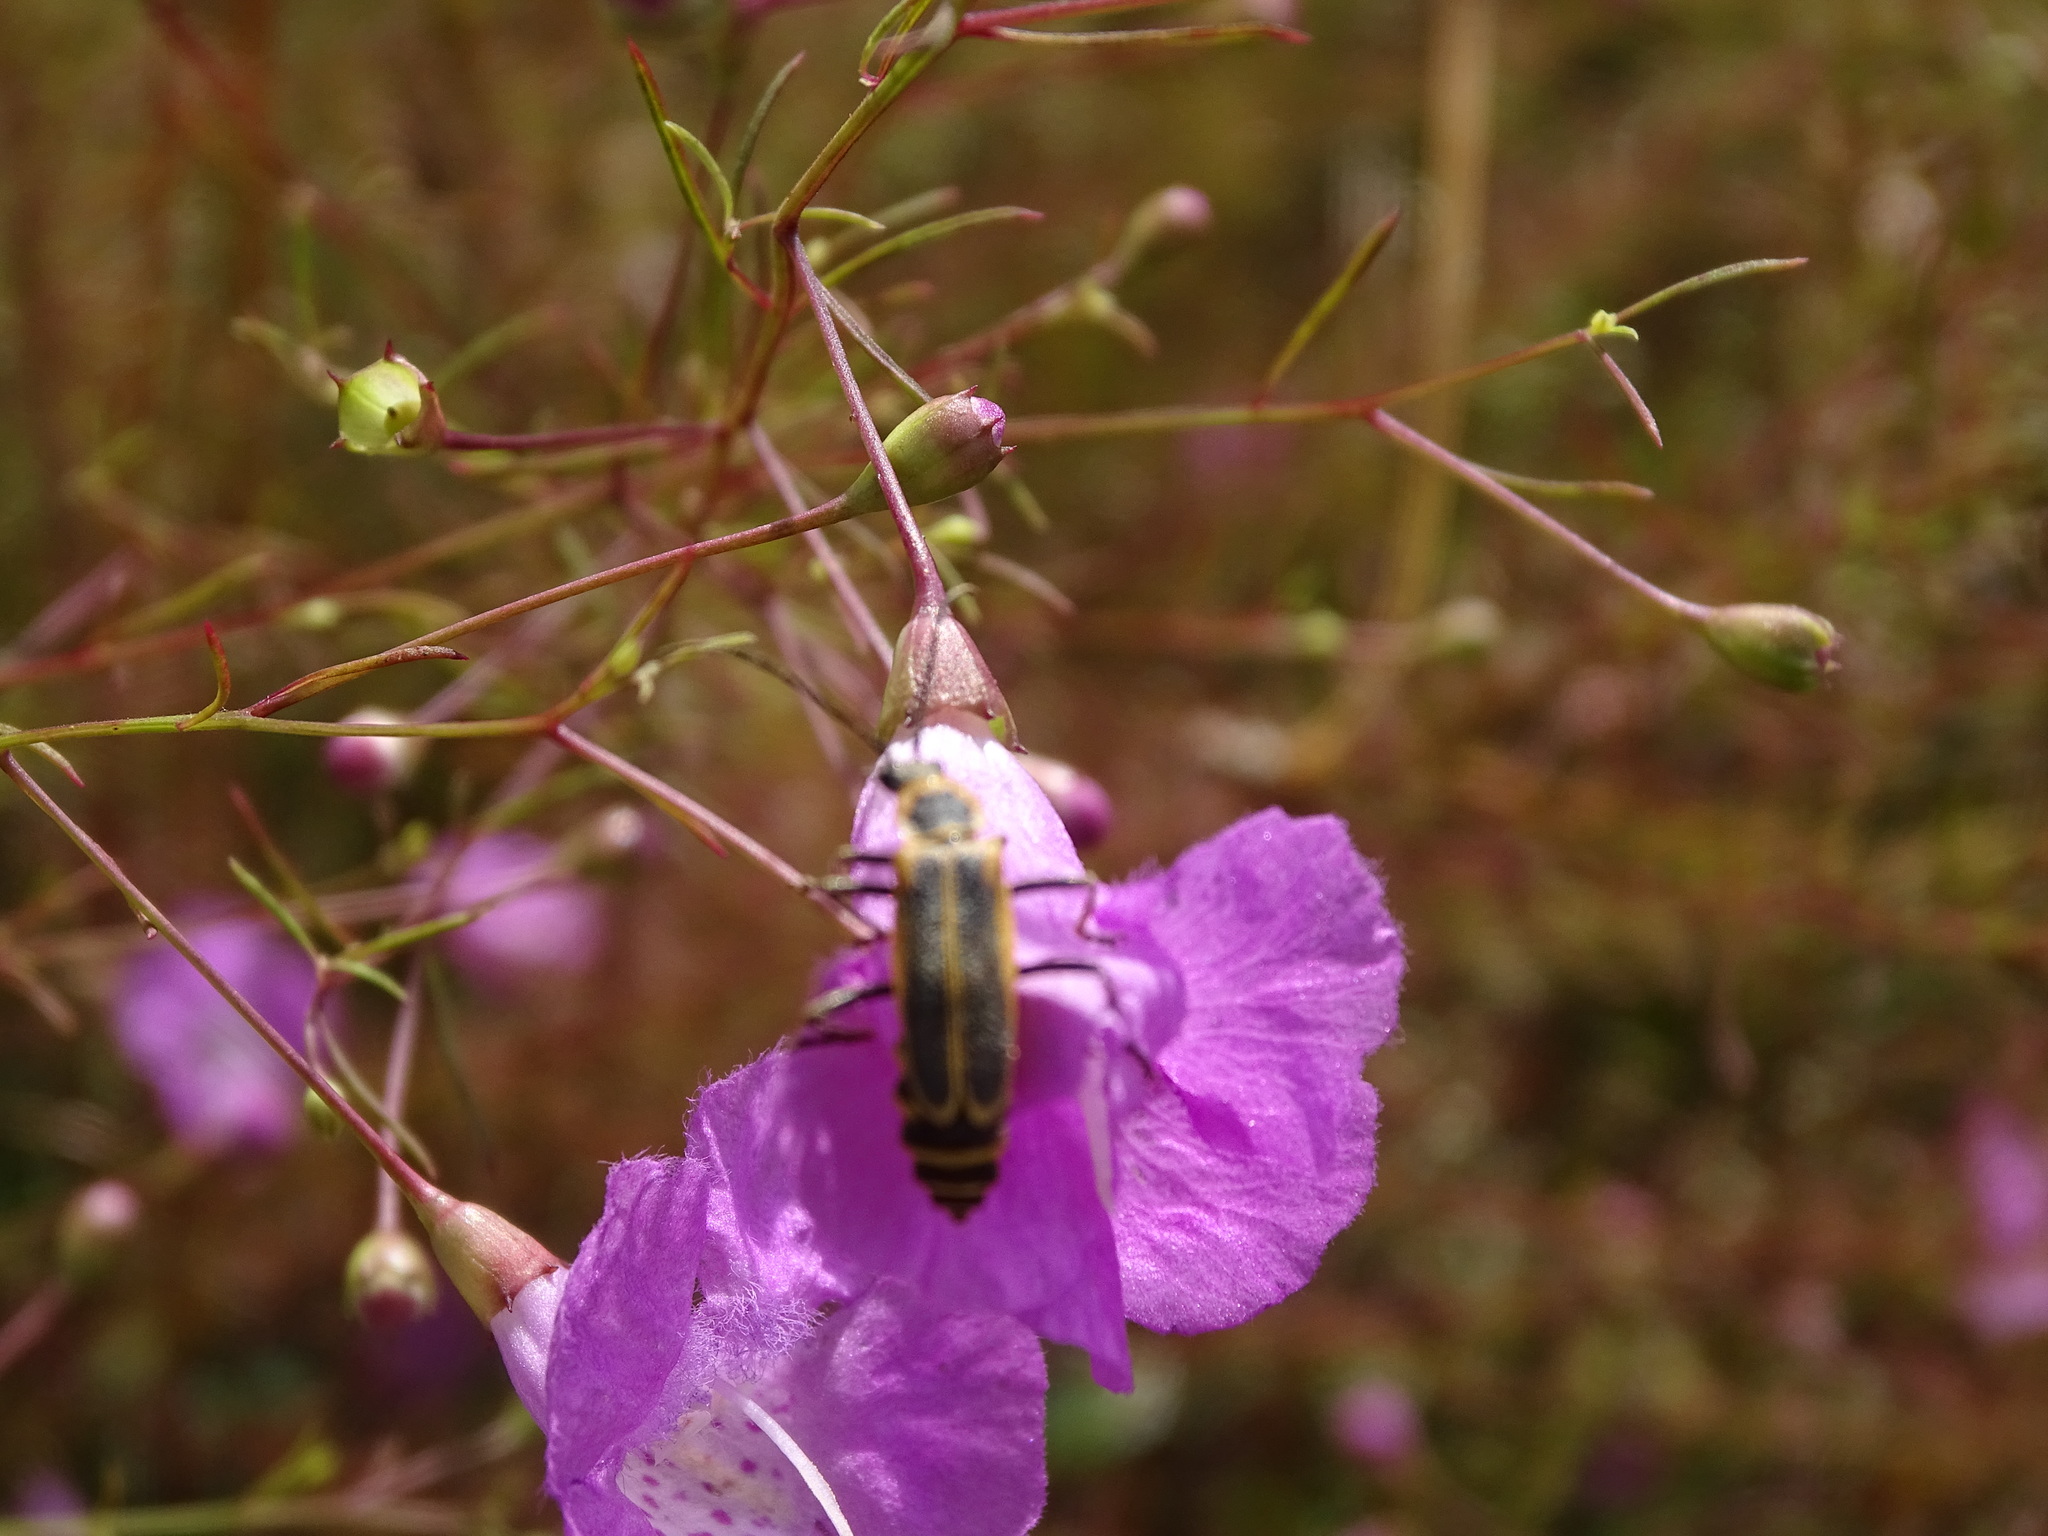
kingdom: Animalia
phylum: Arthropoda
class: Insecta
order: Coleoptera
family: Cantharidae
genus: Chauliognathus
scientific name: Chauliognathus pensylvanicus
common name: Goldenrod soldier beetle
